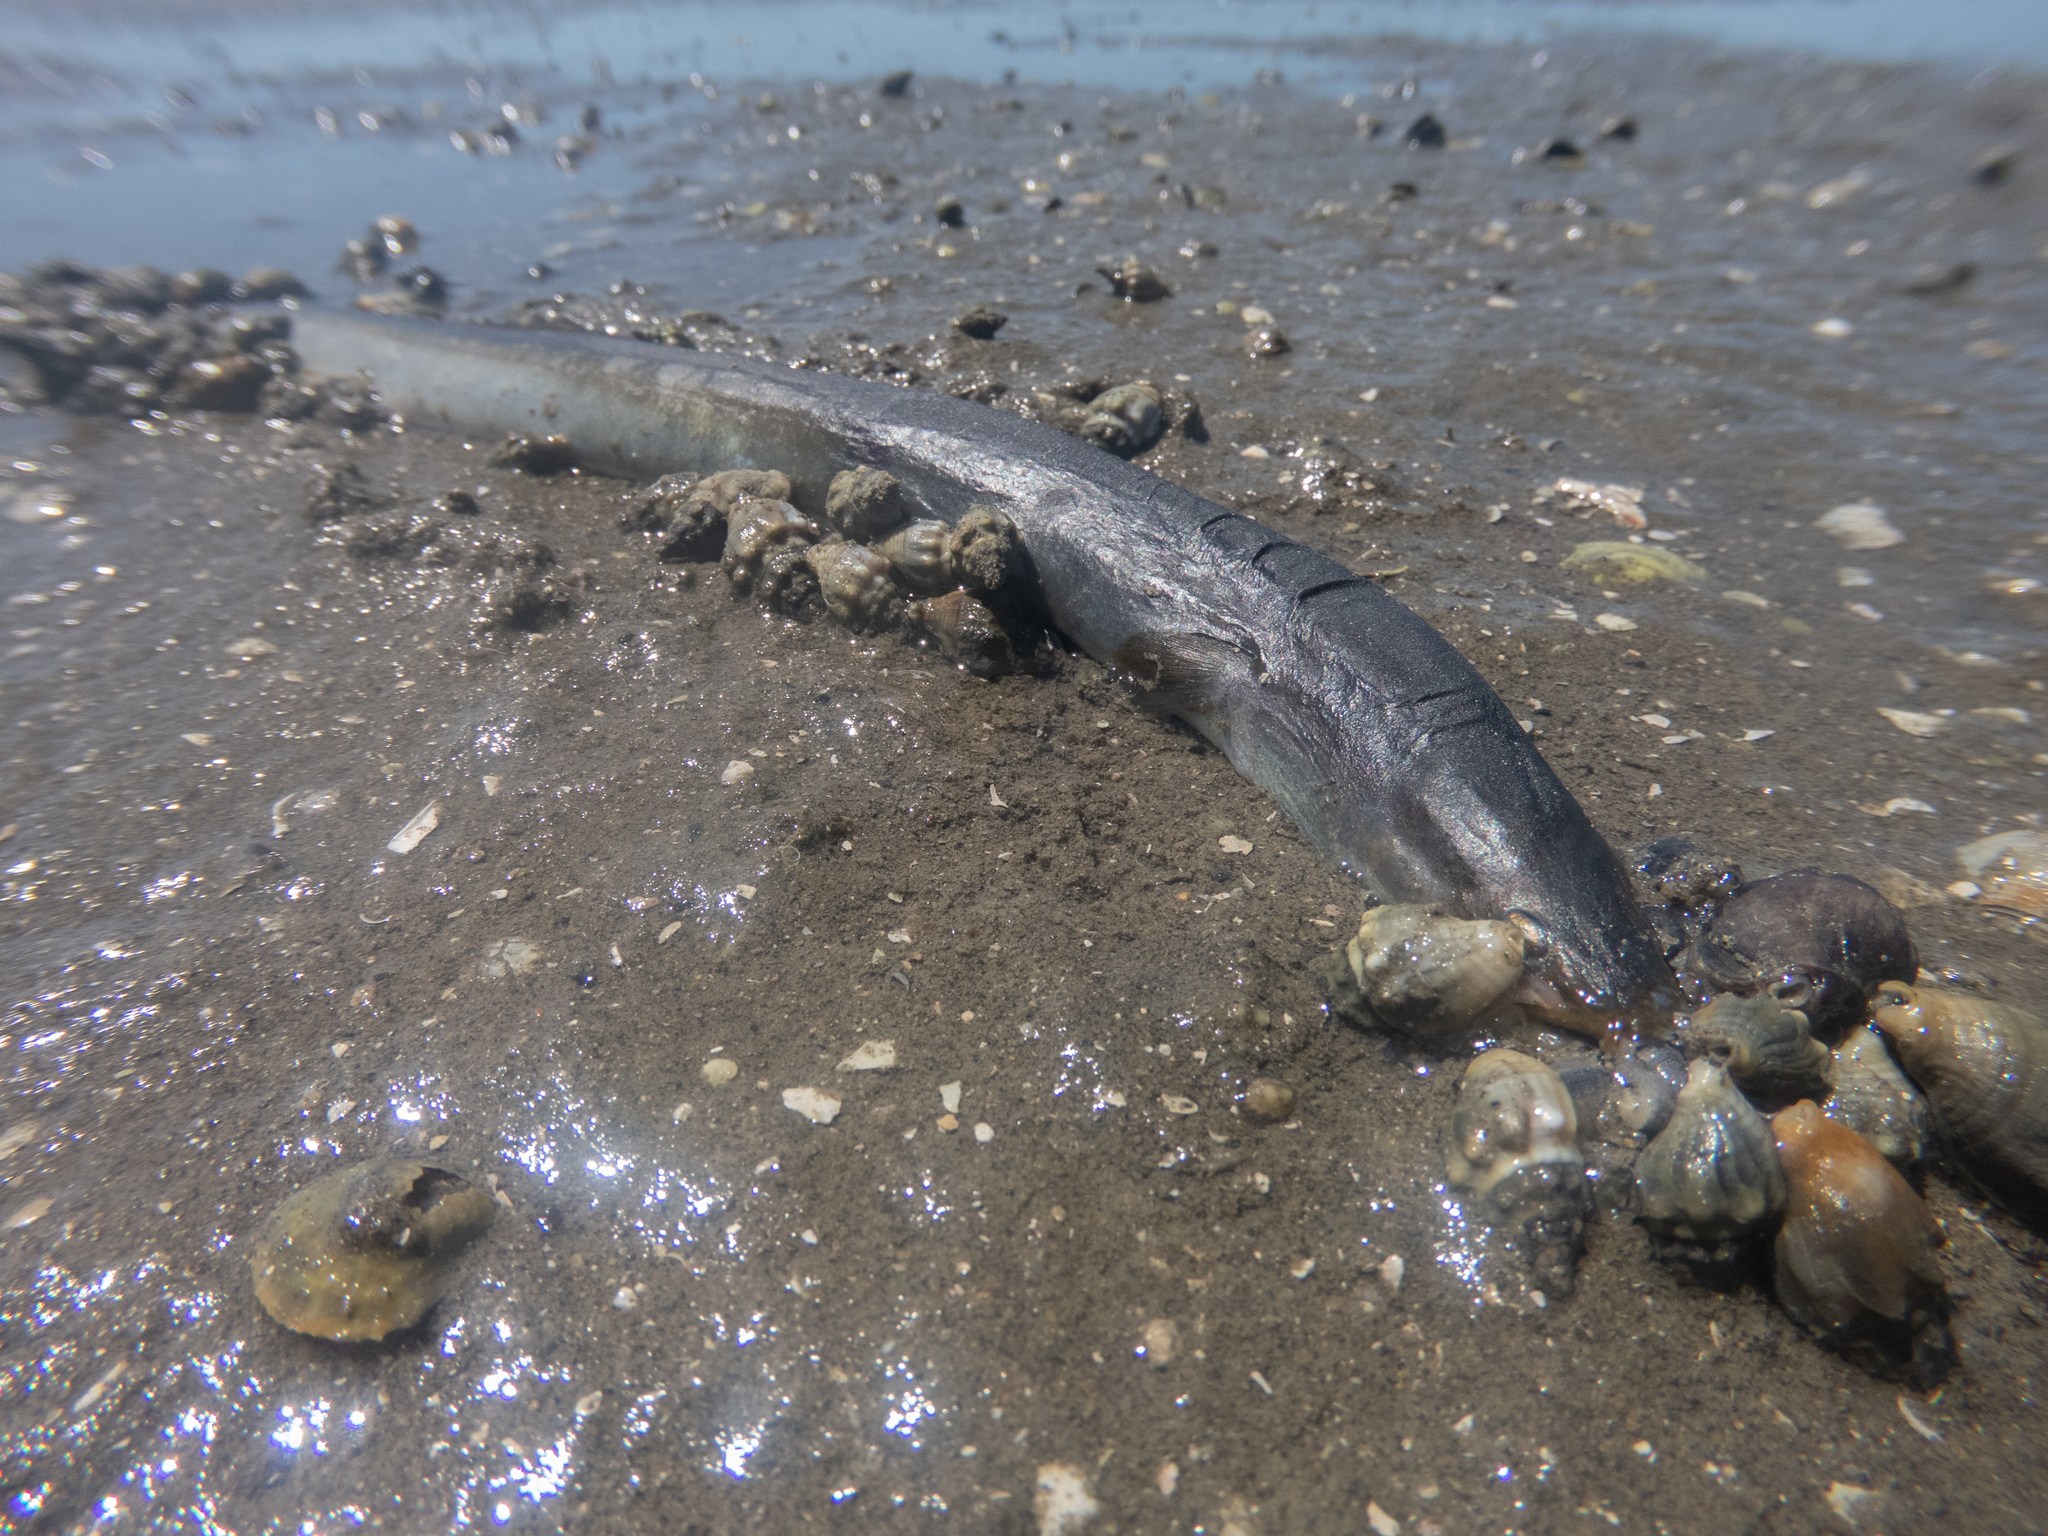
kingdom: Animalia
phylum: Chordata
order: Anguilliformes
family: Anguillidae
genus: Anguilla
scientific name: Anguilla australis
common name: Shortfin eel
